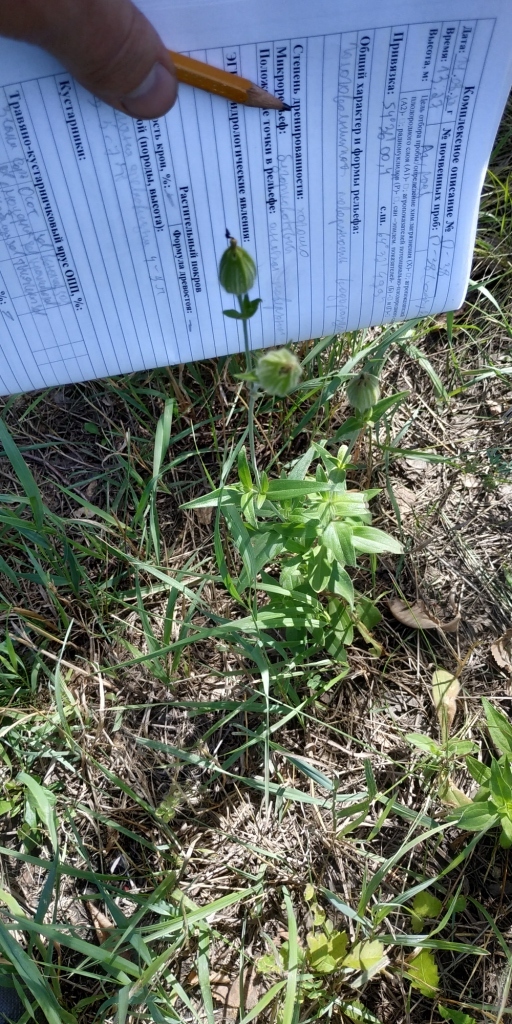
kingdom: Plantae
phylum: Tracheophyta
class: Magnoliopsida
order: Caryophyllales
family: Caryophyllaceae
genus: Silene
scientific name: Silene latifolia
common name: White campion
